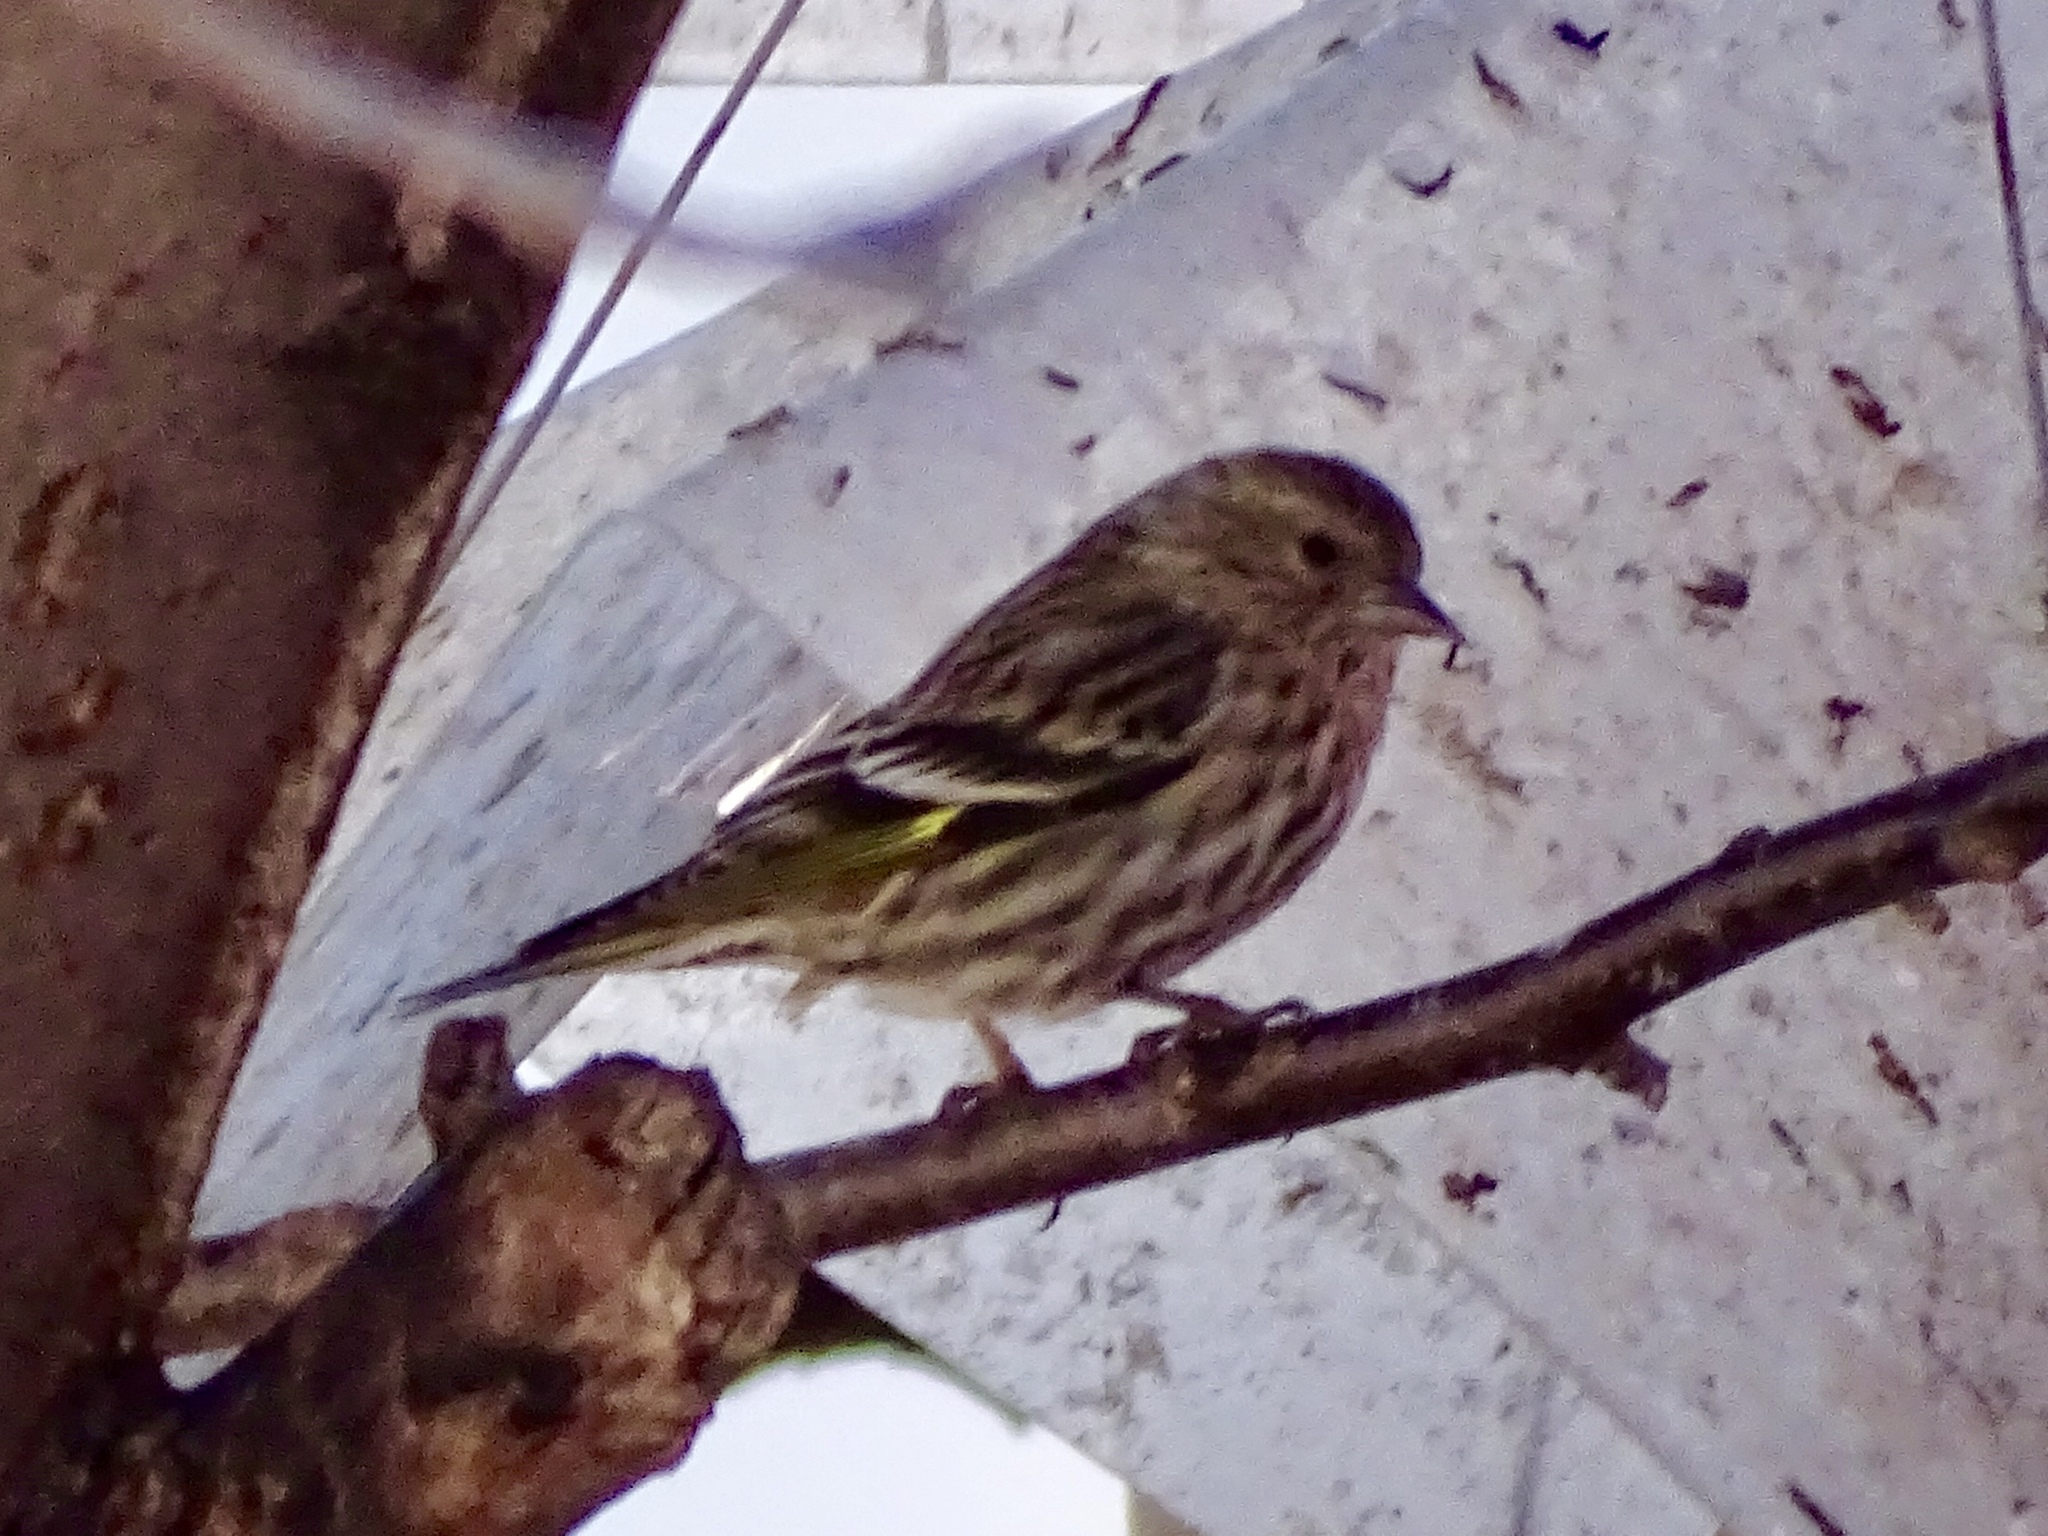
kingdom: Animalia
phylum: Chordata
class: Aves
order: Passeriformes
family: Fringillidae
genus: Spinus
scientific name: Spinus pinus
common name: Pine siskin
